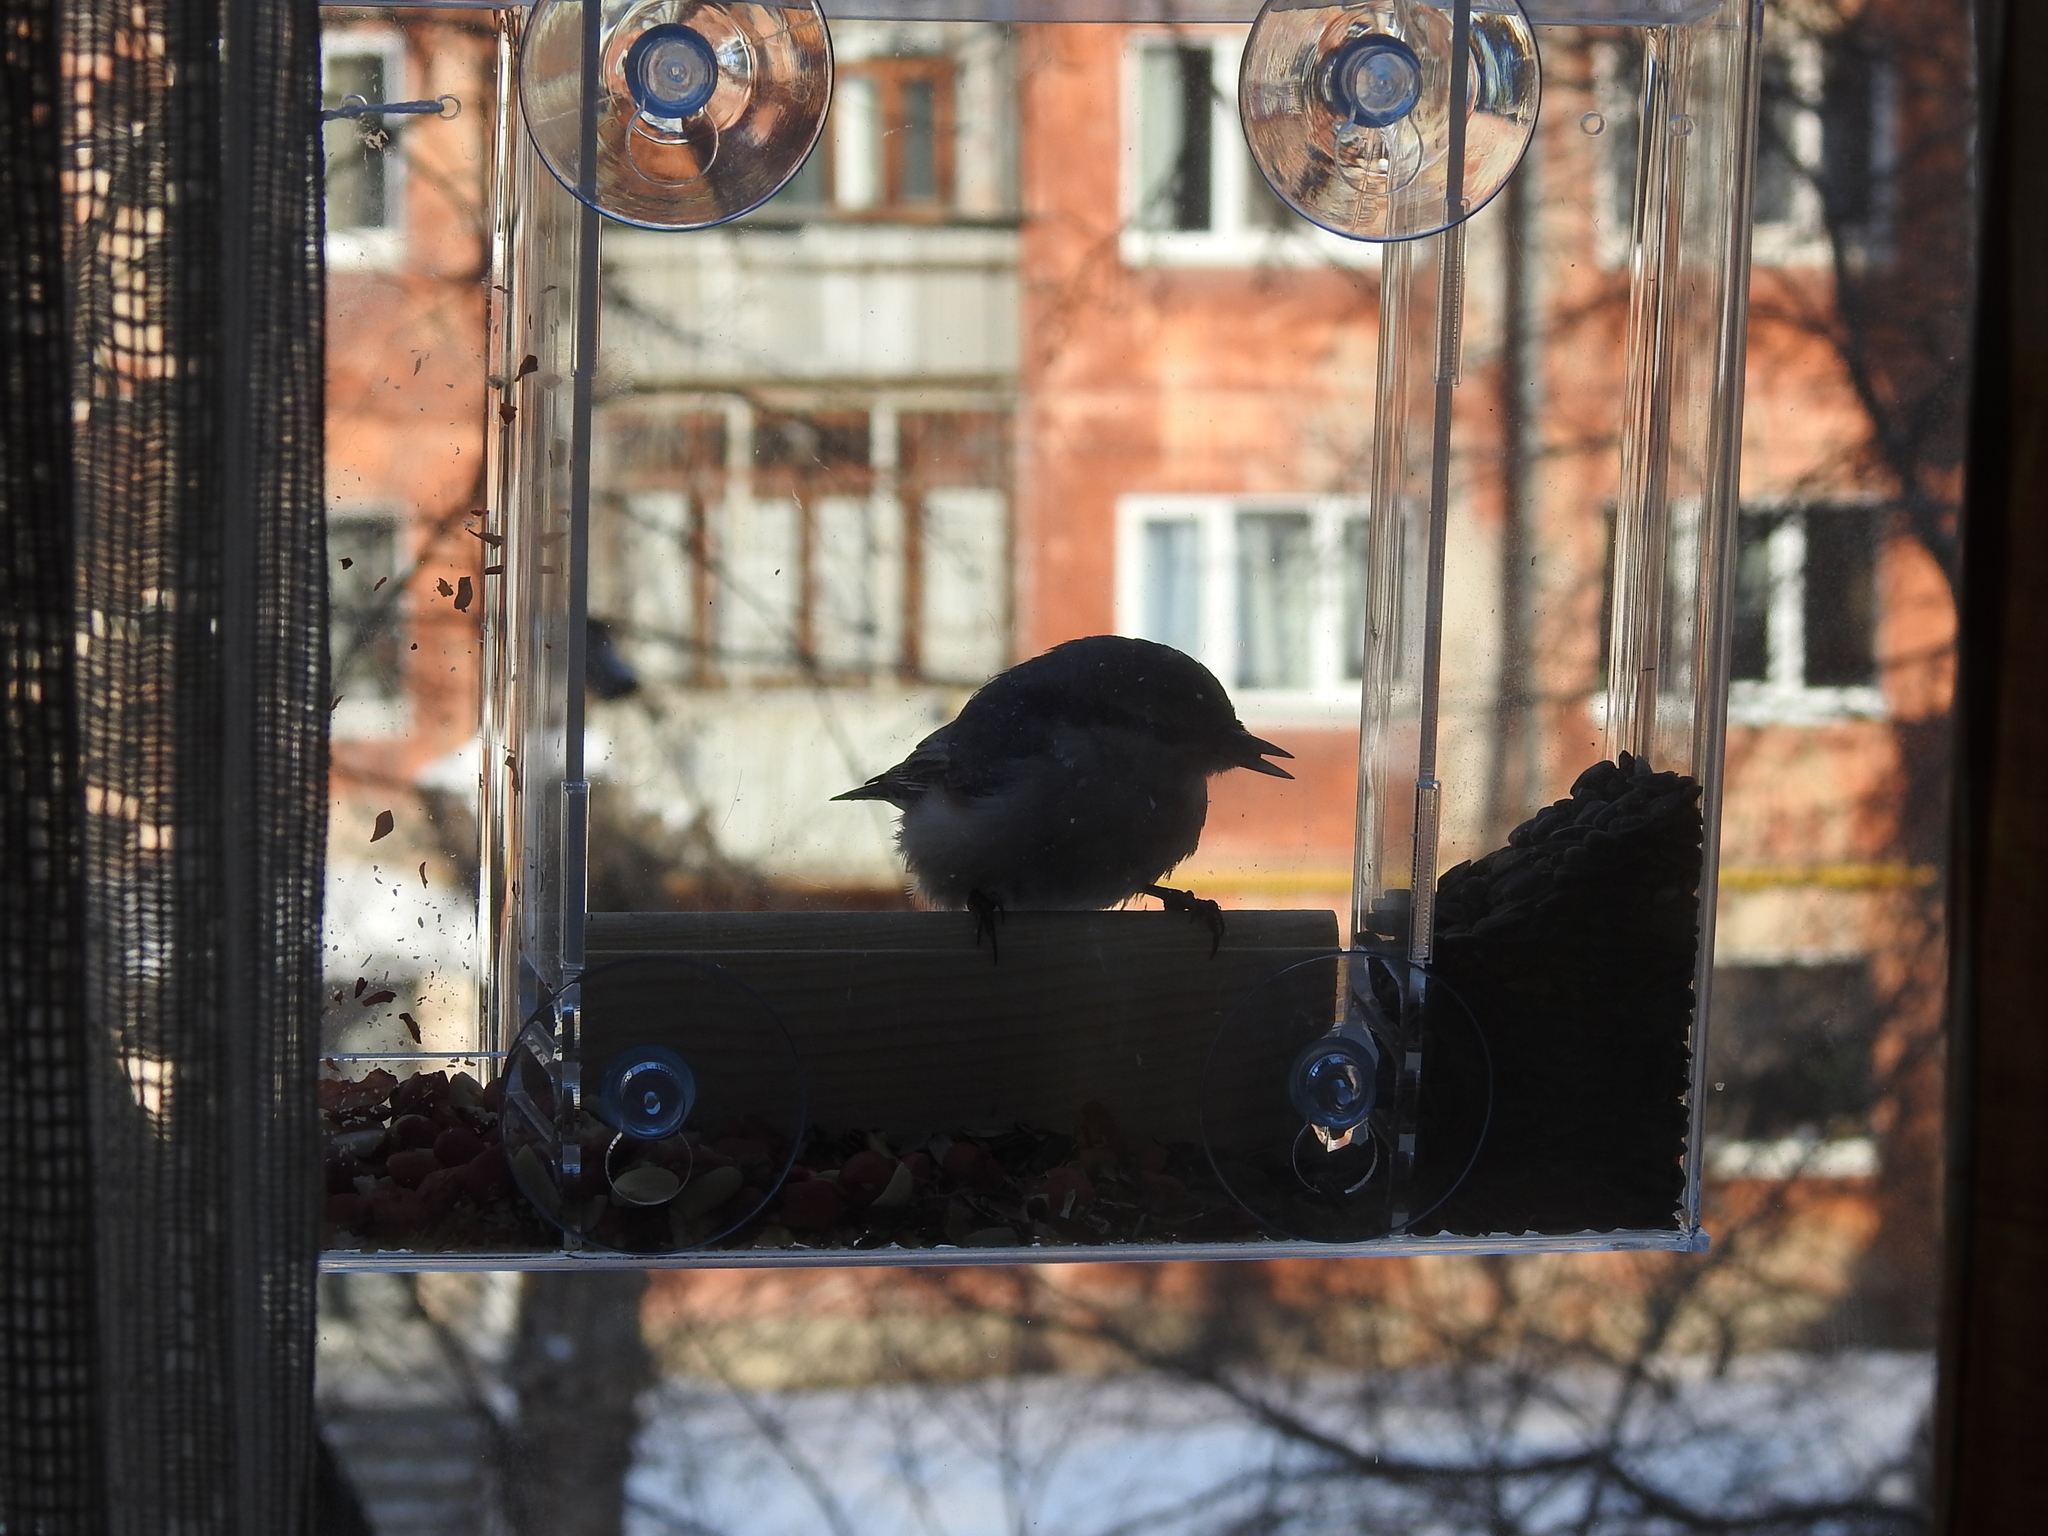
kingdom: Animalia
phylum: Chordata
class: Aves
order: Passeriformes
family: Sittidae
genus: Sitta
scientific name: Sitta europaea
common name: Eurasian nuthatch
